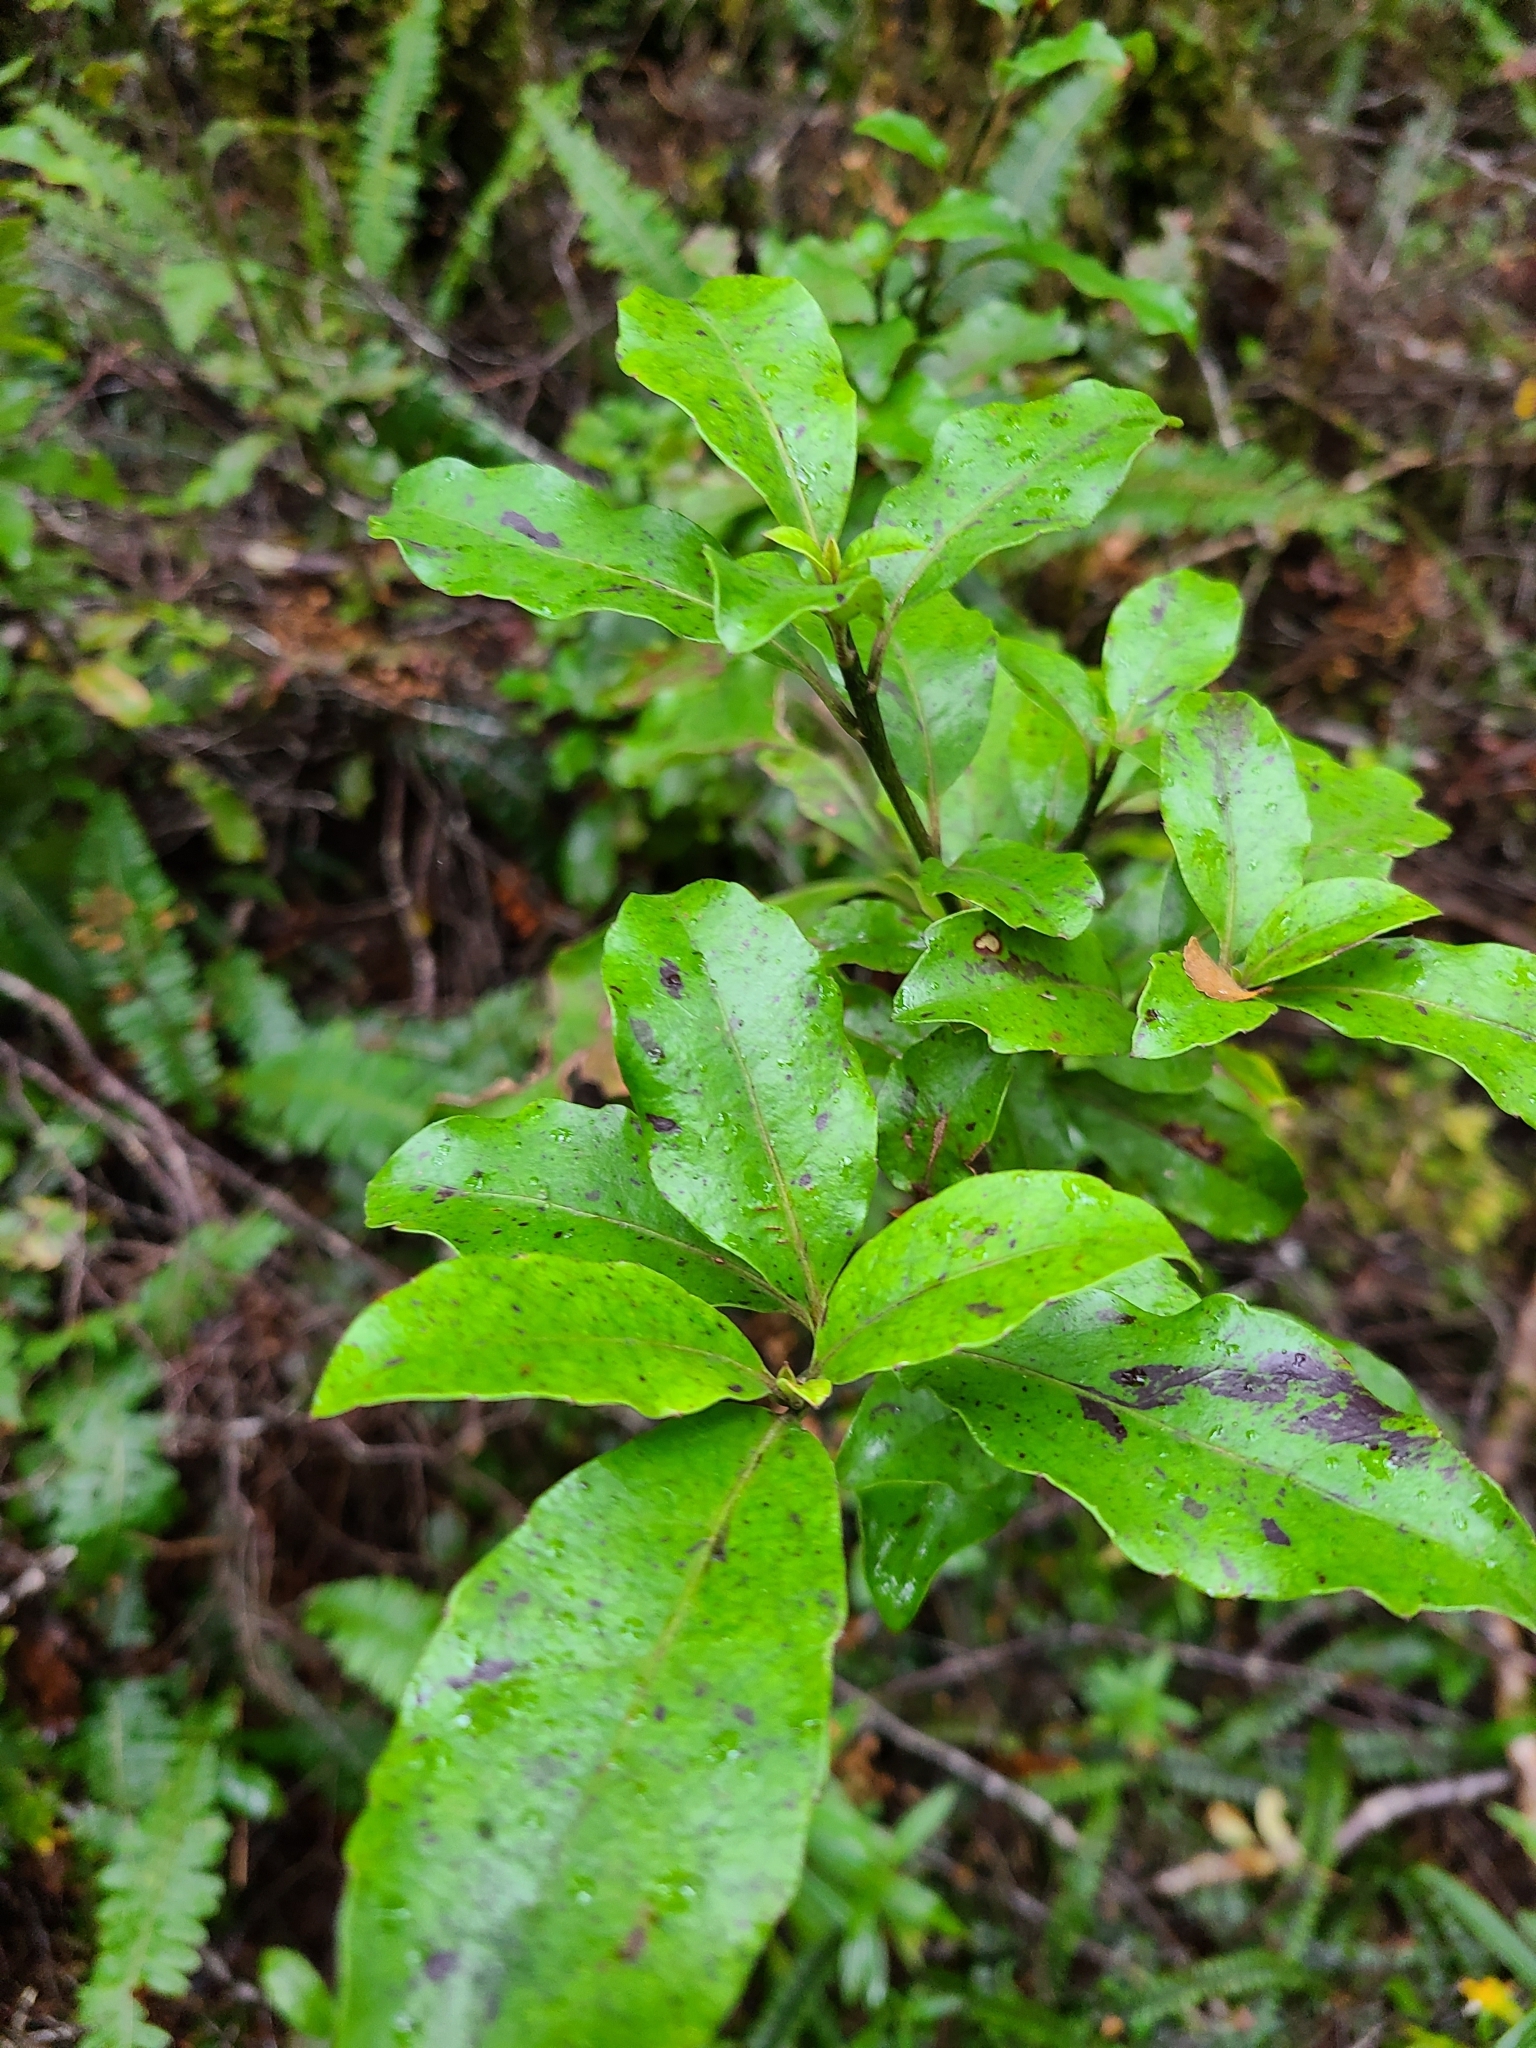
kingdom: Plantae
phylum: Tracheophyta
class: Magnoliopsida
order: Asterales
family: Alseuosmiaceae
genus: Alseuosmia
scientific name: Alseuosmia macrophylla
